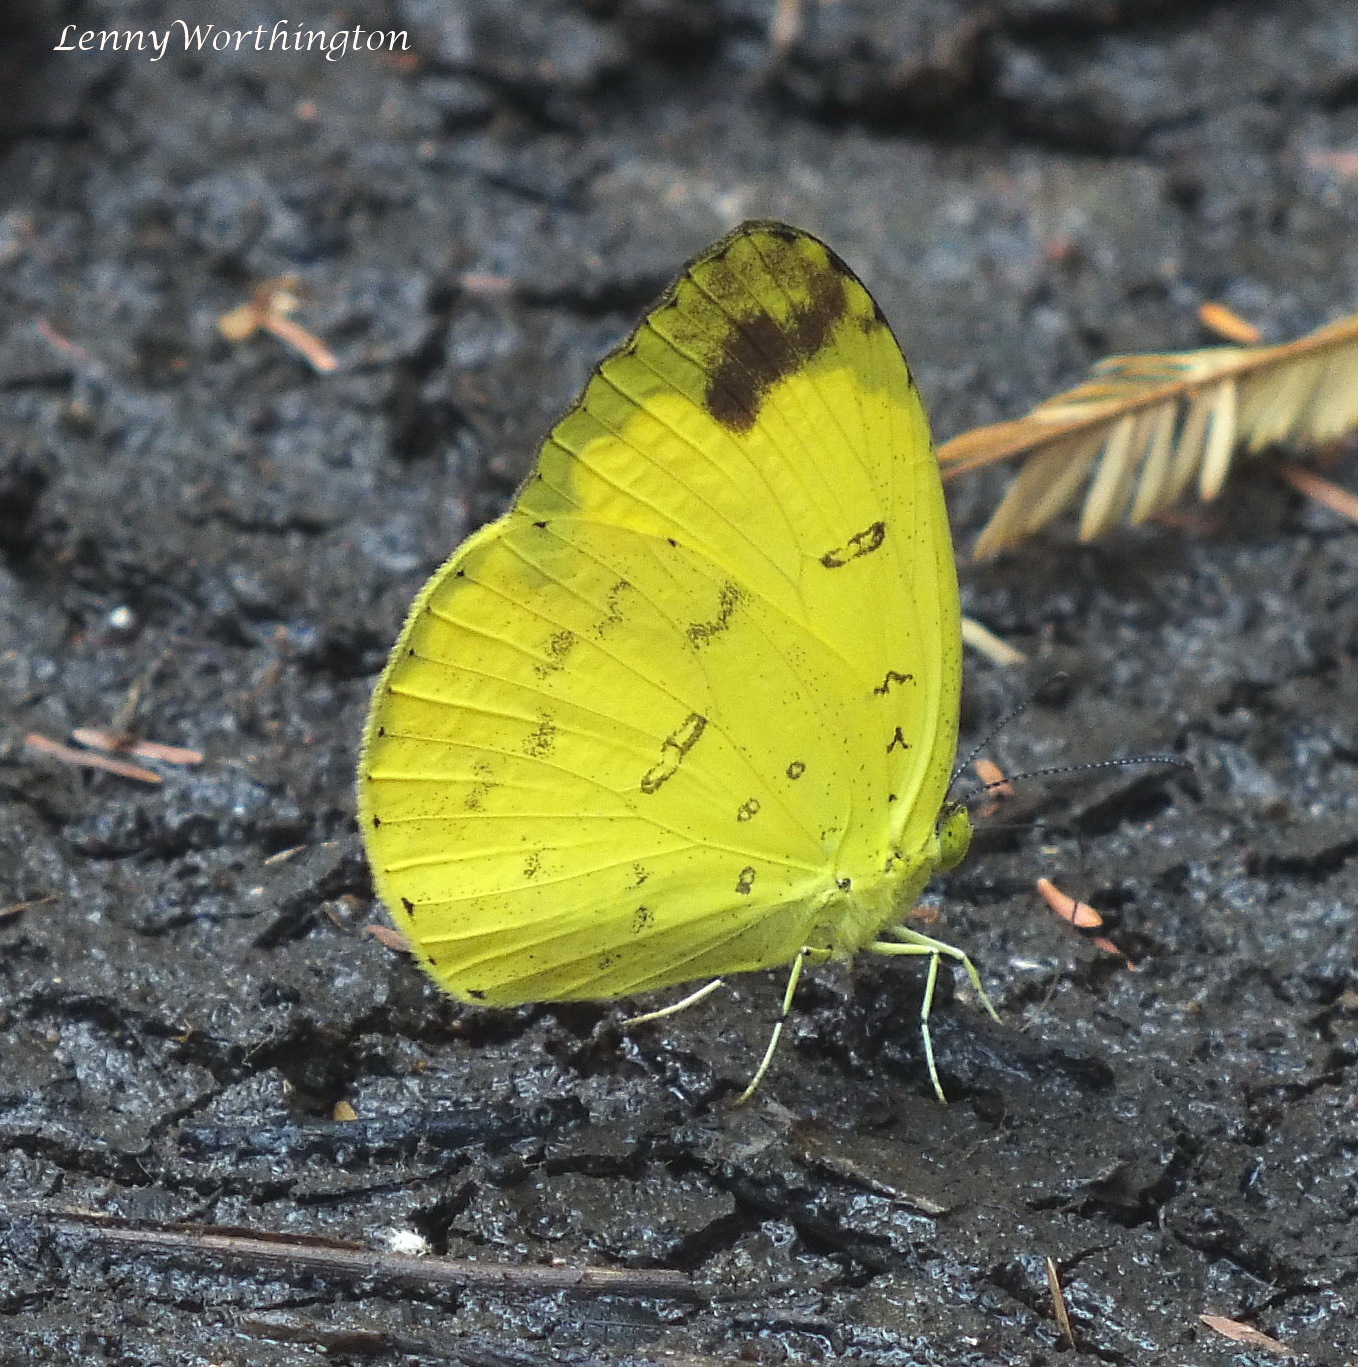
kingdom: Animalia
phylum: Arthropoda
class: Insecta
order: Lepidoptera
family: Pieridae
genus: Eurema
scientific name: Eurema blanda
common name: Three-spot grass yellow
